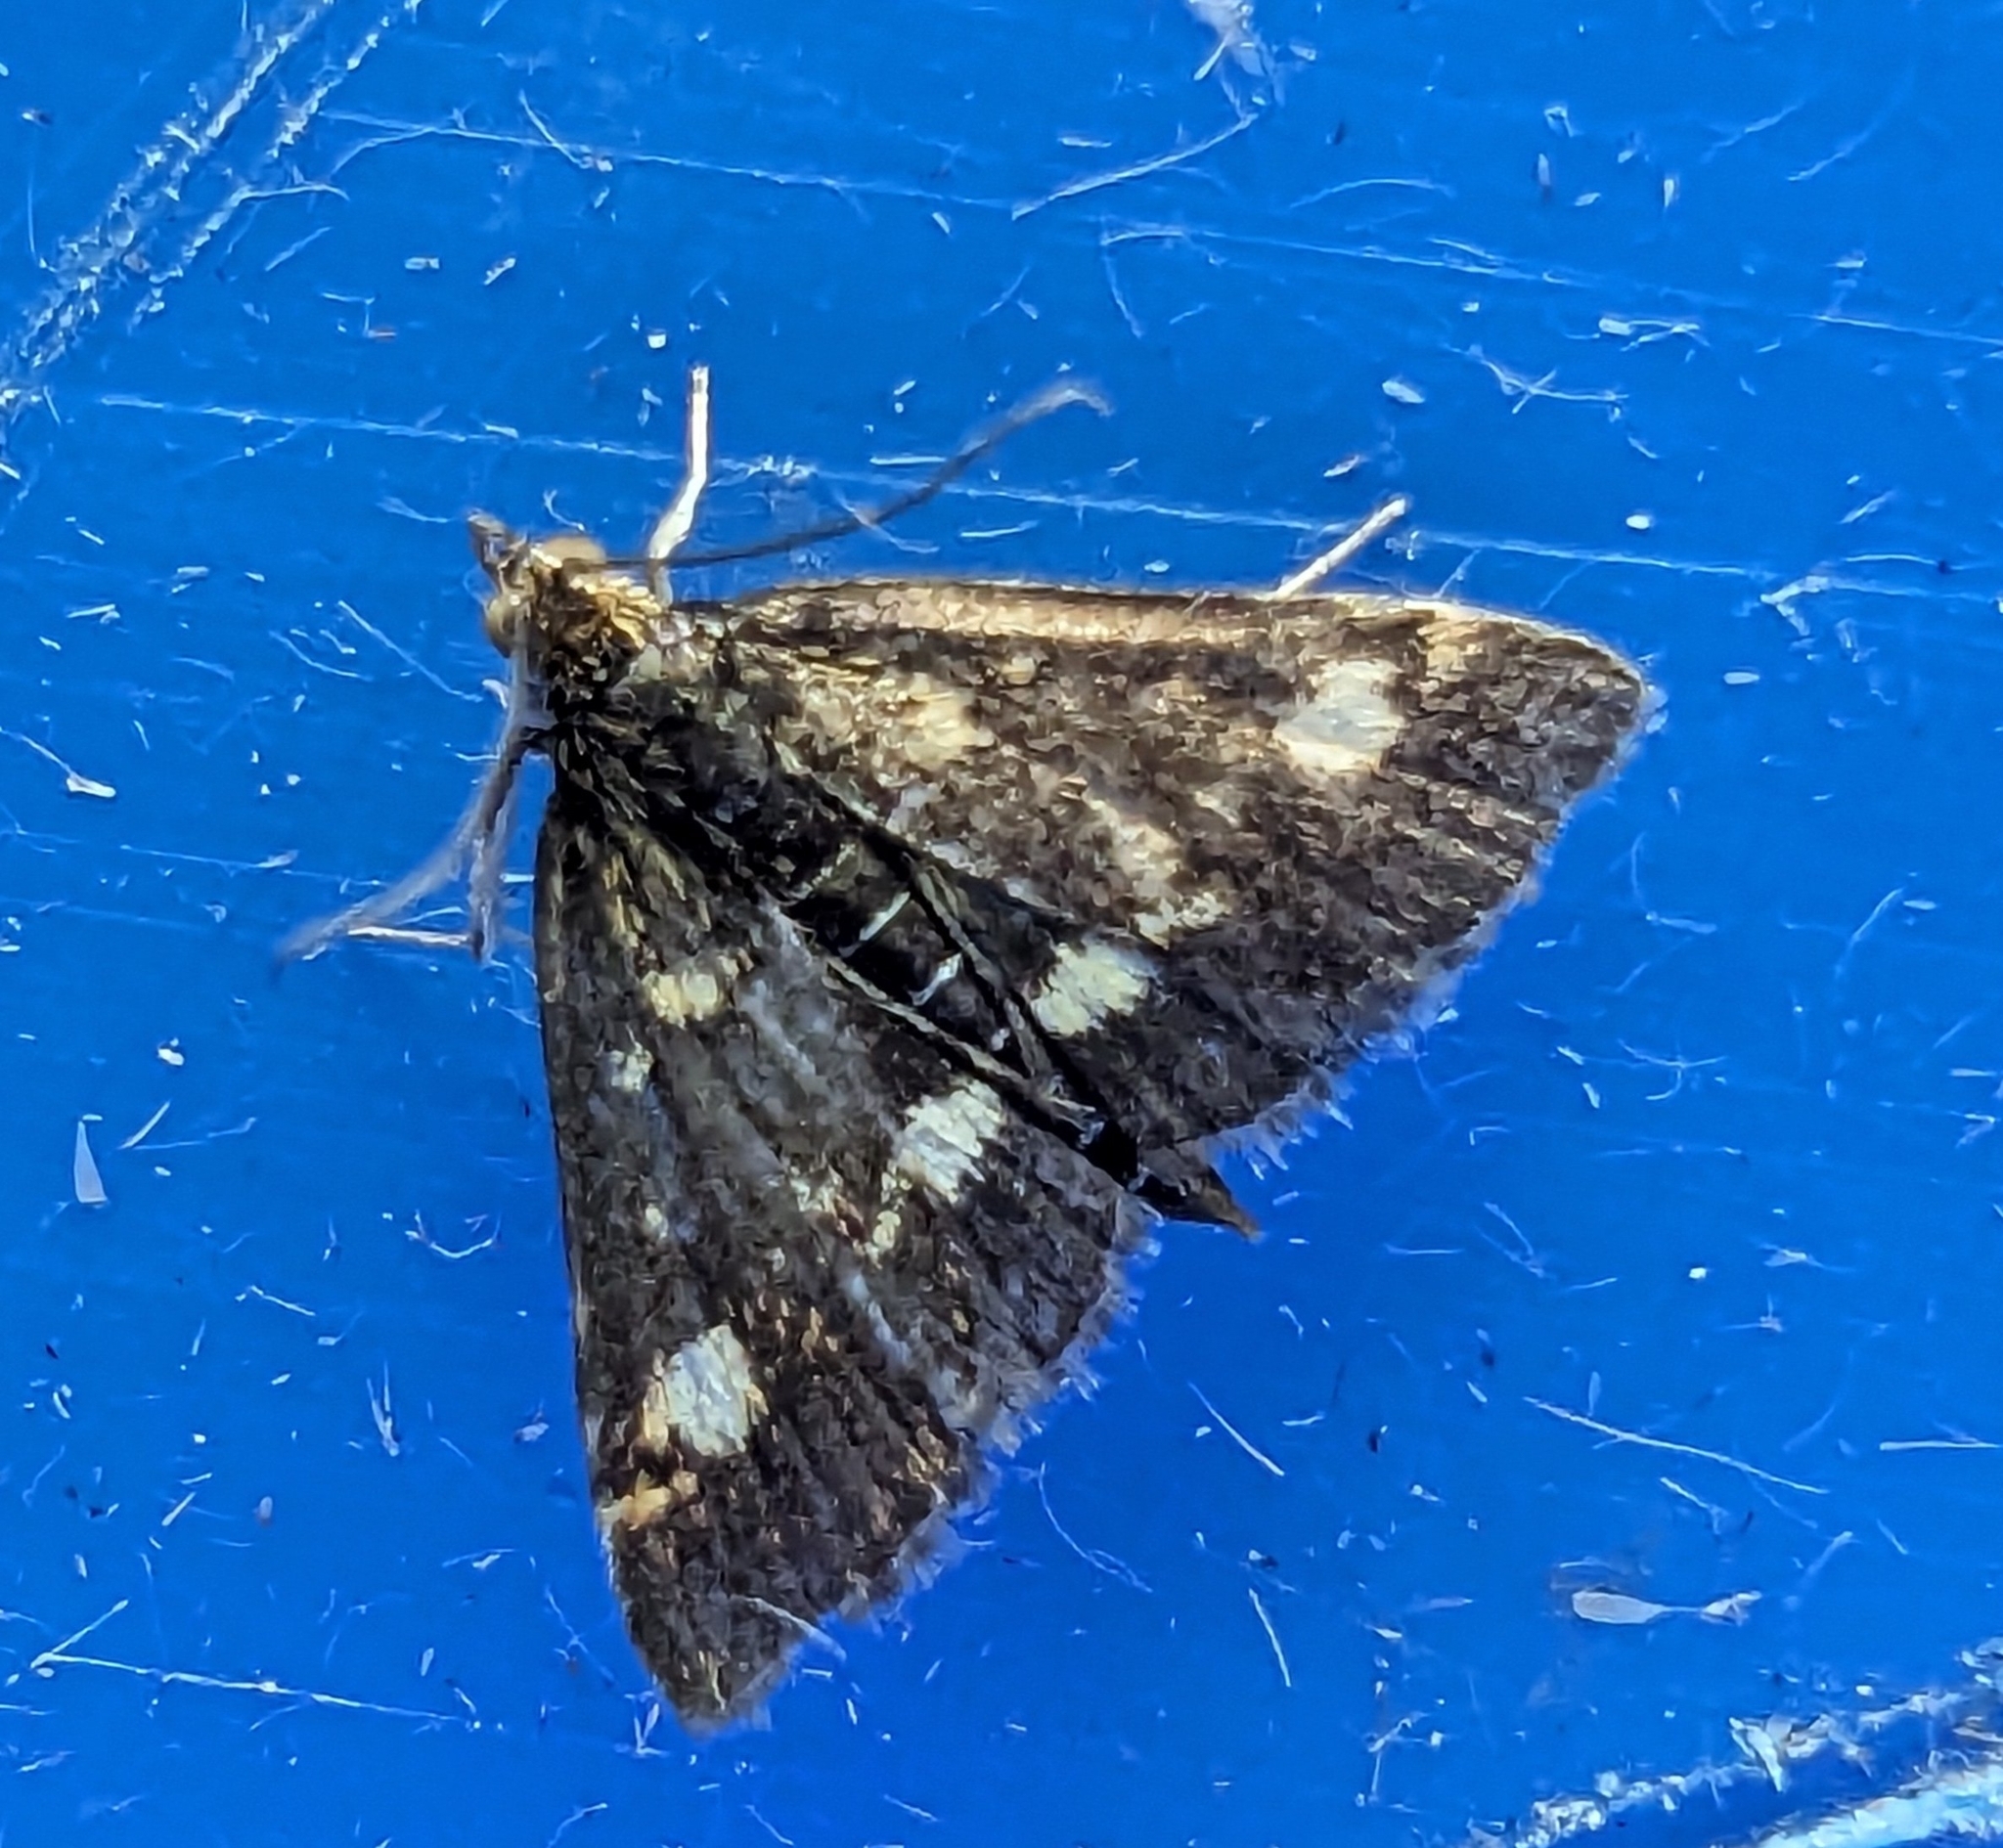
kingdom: Animalia
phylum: Arthropoda
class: Insecta
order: Lepidoptera
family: Crambidae
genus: Pyrausta
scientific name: Pyrausta aurata
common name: Small purple & gold
